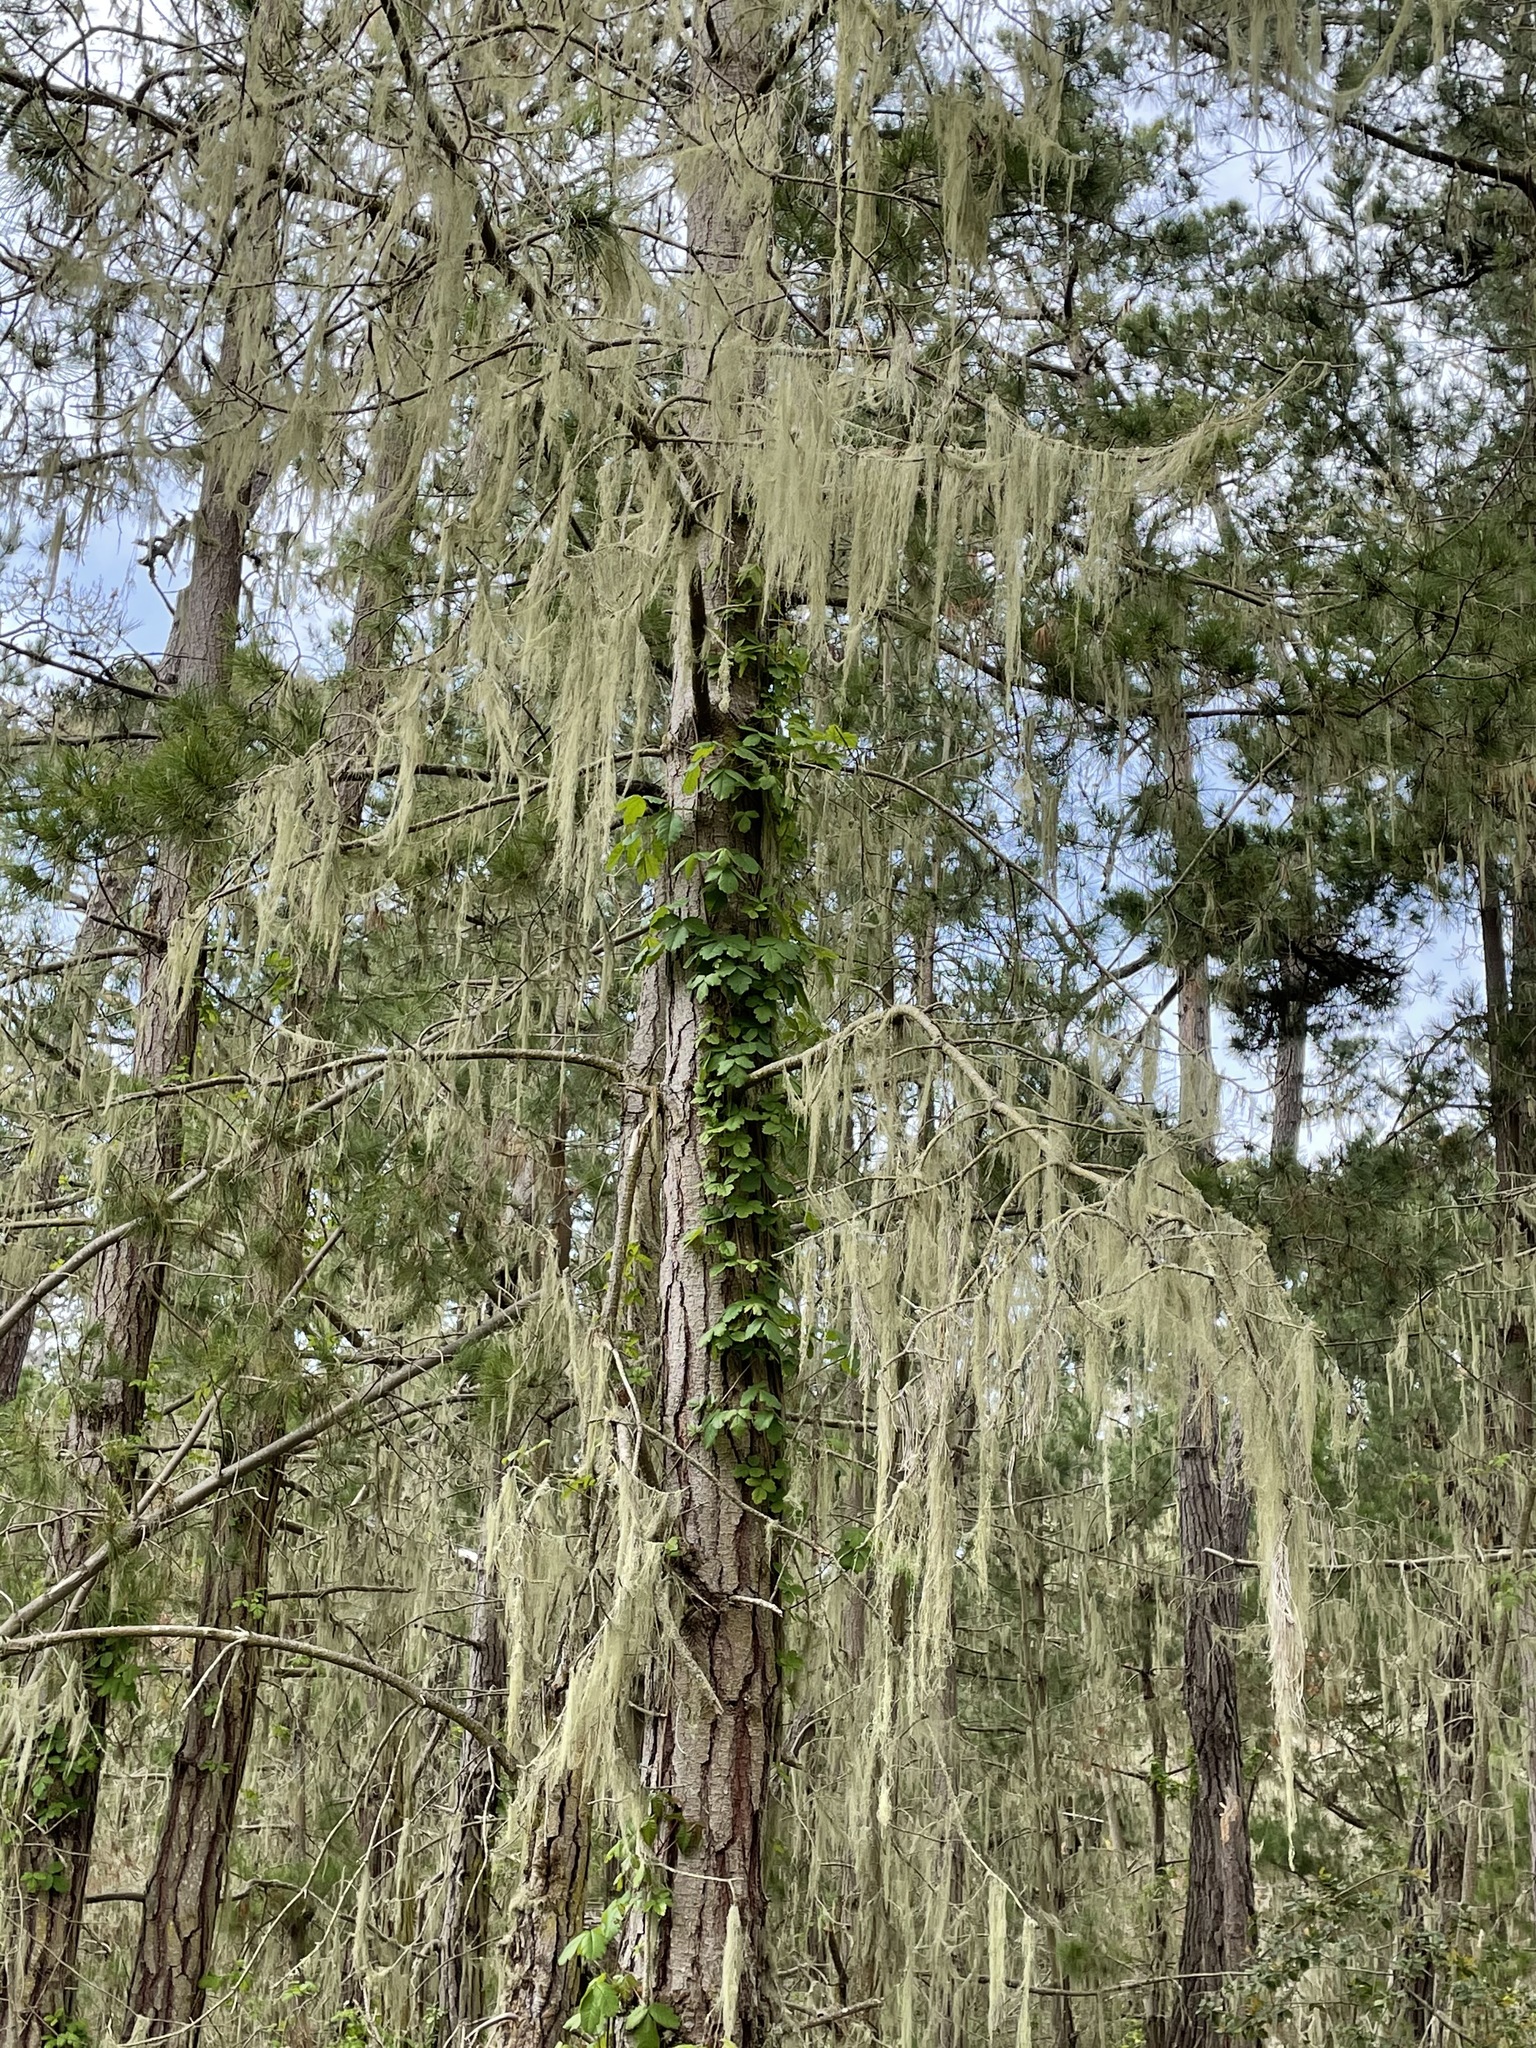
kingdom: Fungi
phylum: Ascomycota
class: Lecanoromycetes
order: Lecanorales
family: Ramalinaceae
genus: Ramalina
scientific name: Ramalina menziesii
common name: Lace lichen
